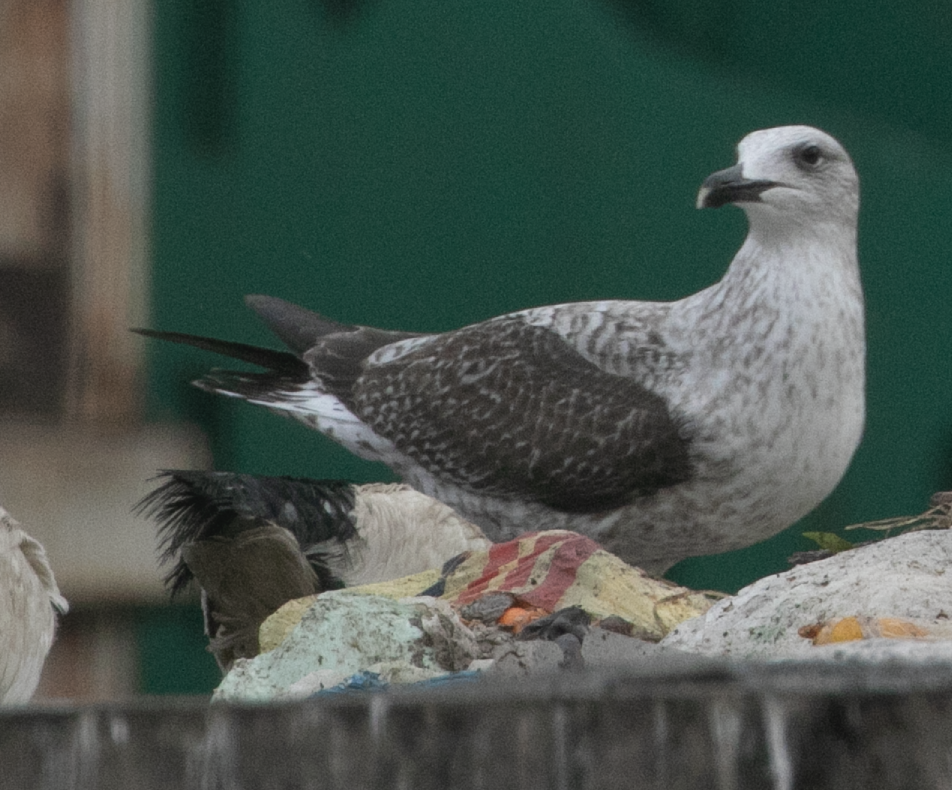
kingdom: Animalia
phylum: Chordata
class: Aves
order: Charadriiformes
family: Laridae
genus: Larus
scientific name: Larus michahellis
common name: Yellow-legged gull
